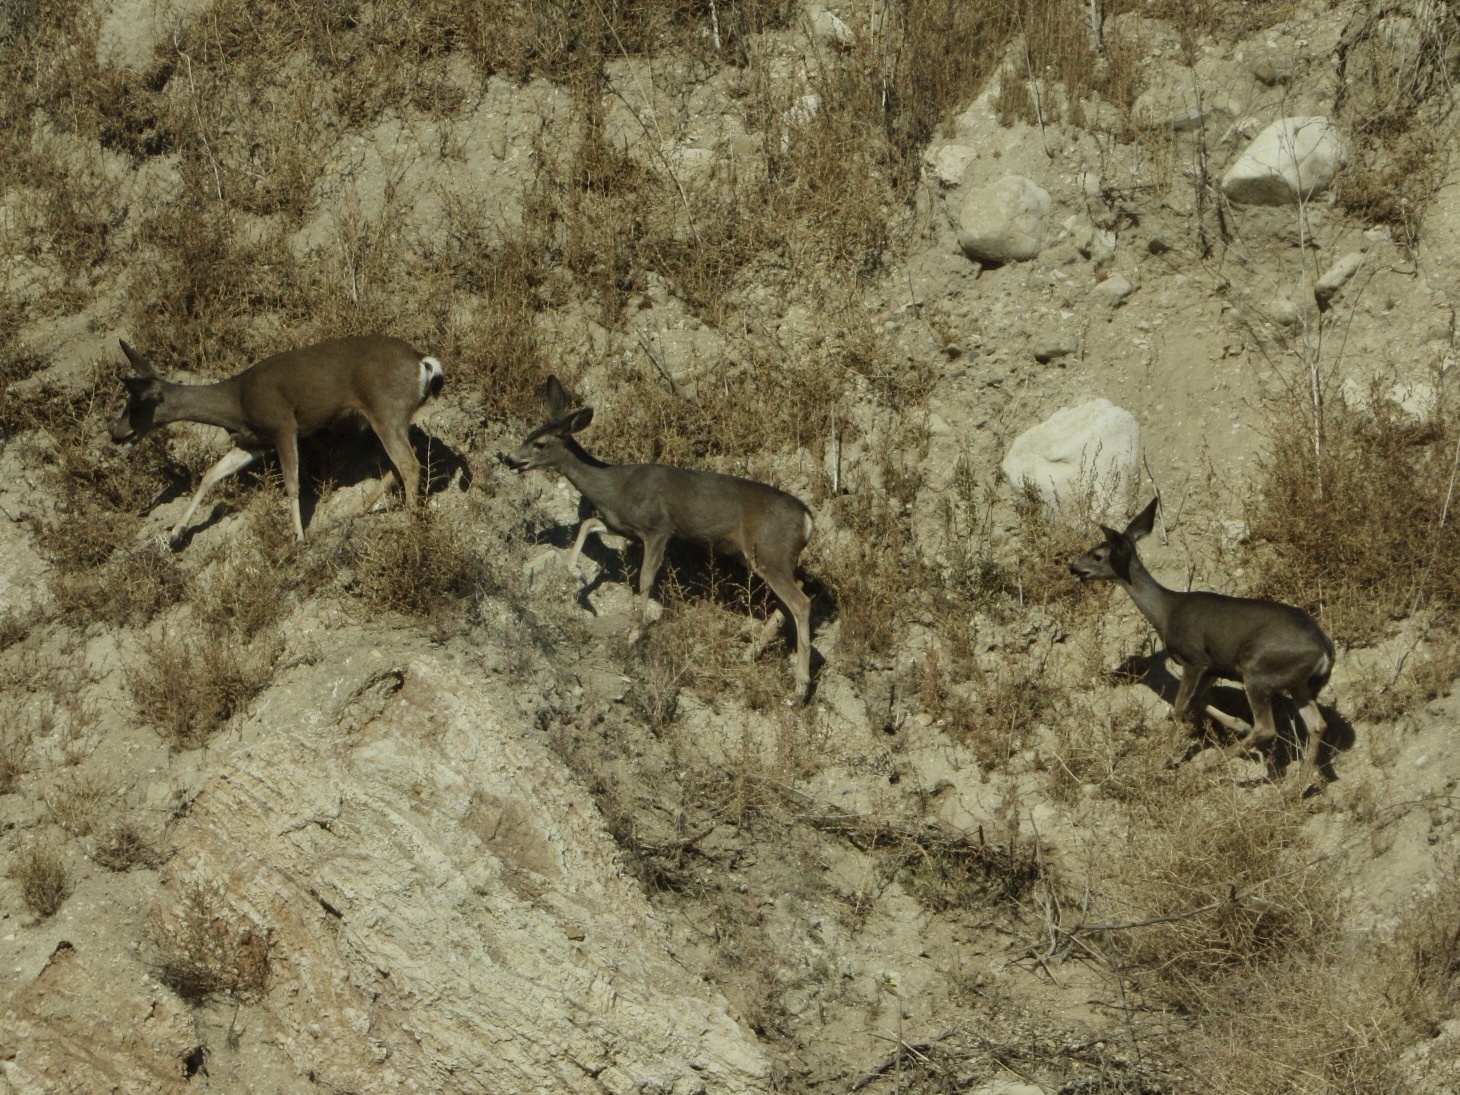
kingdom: Animalia
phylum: Chordata
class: Mammalia
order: Artiodactyla
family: Cervidae
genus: Odocoileus
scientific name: Odocoileus hemionus
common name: Mule deer
